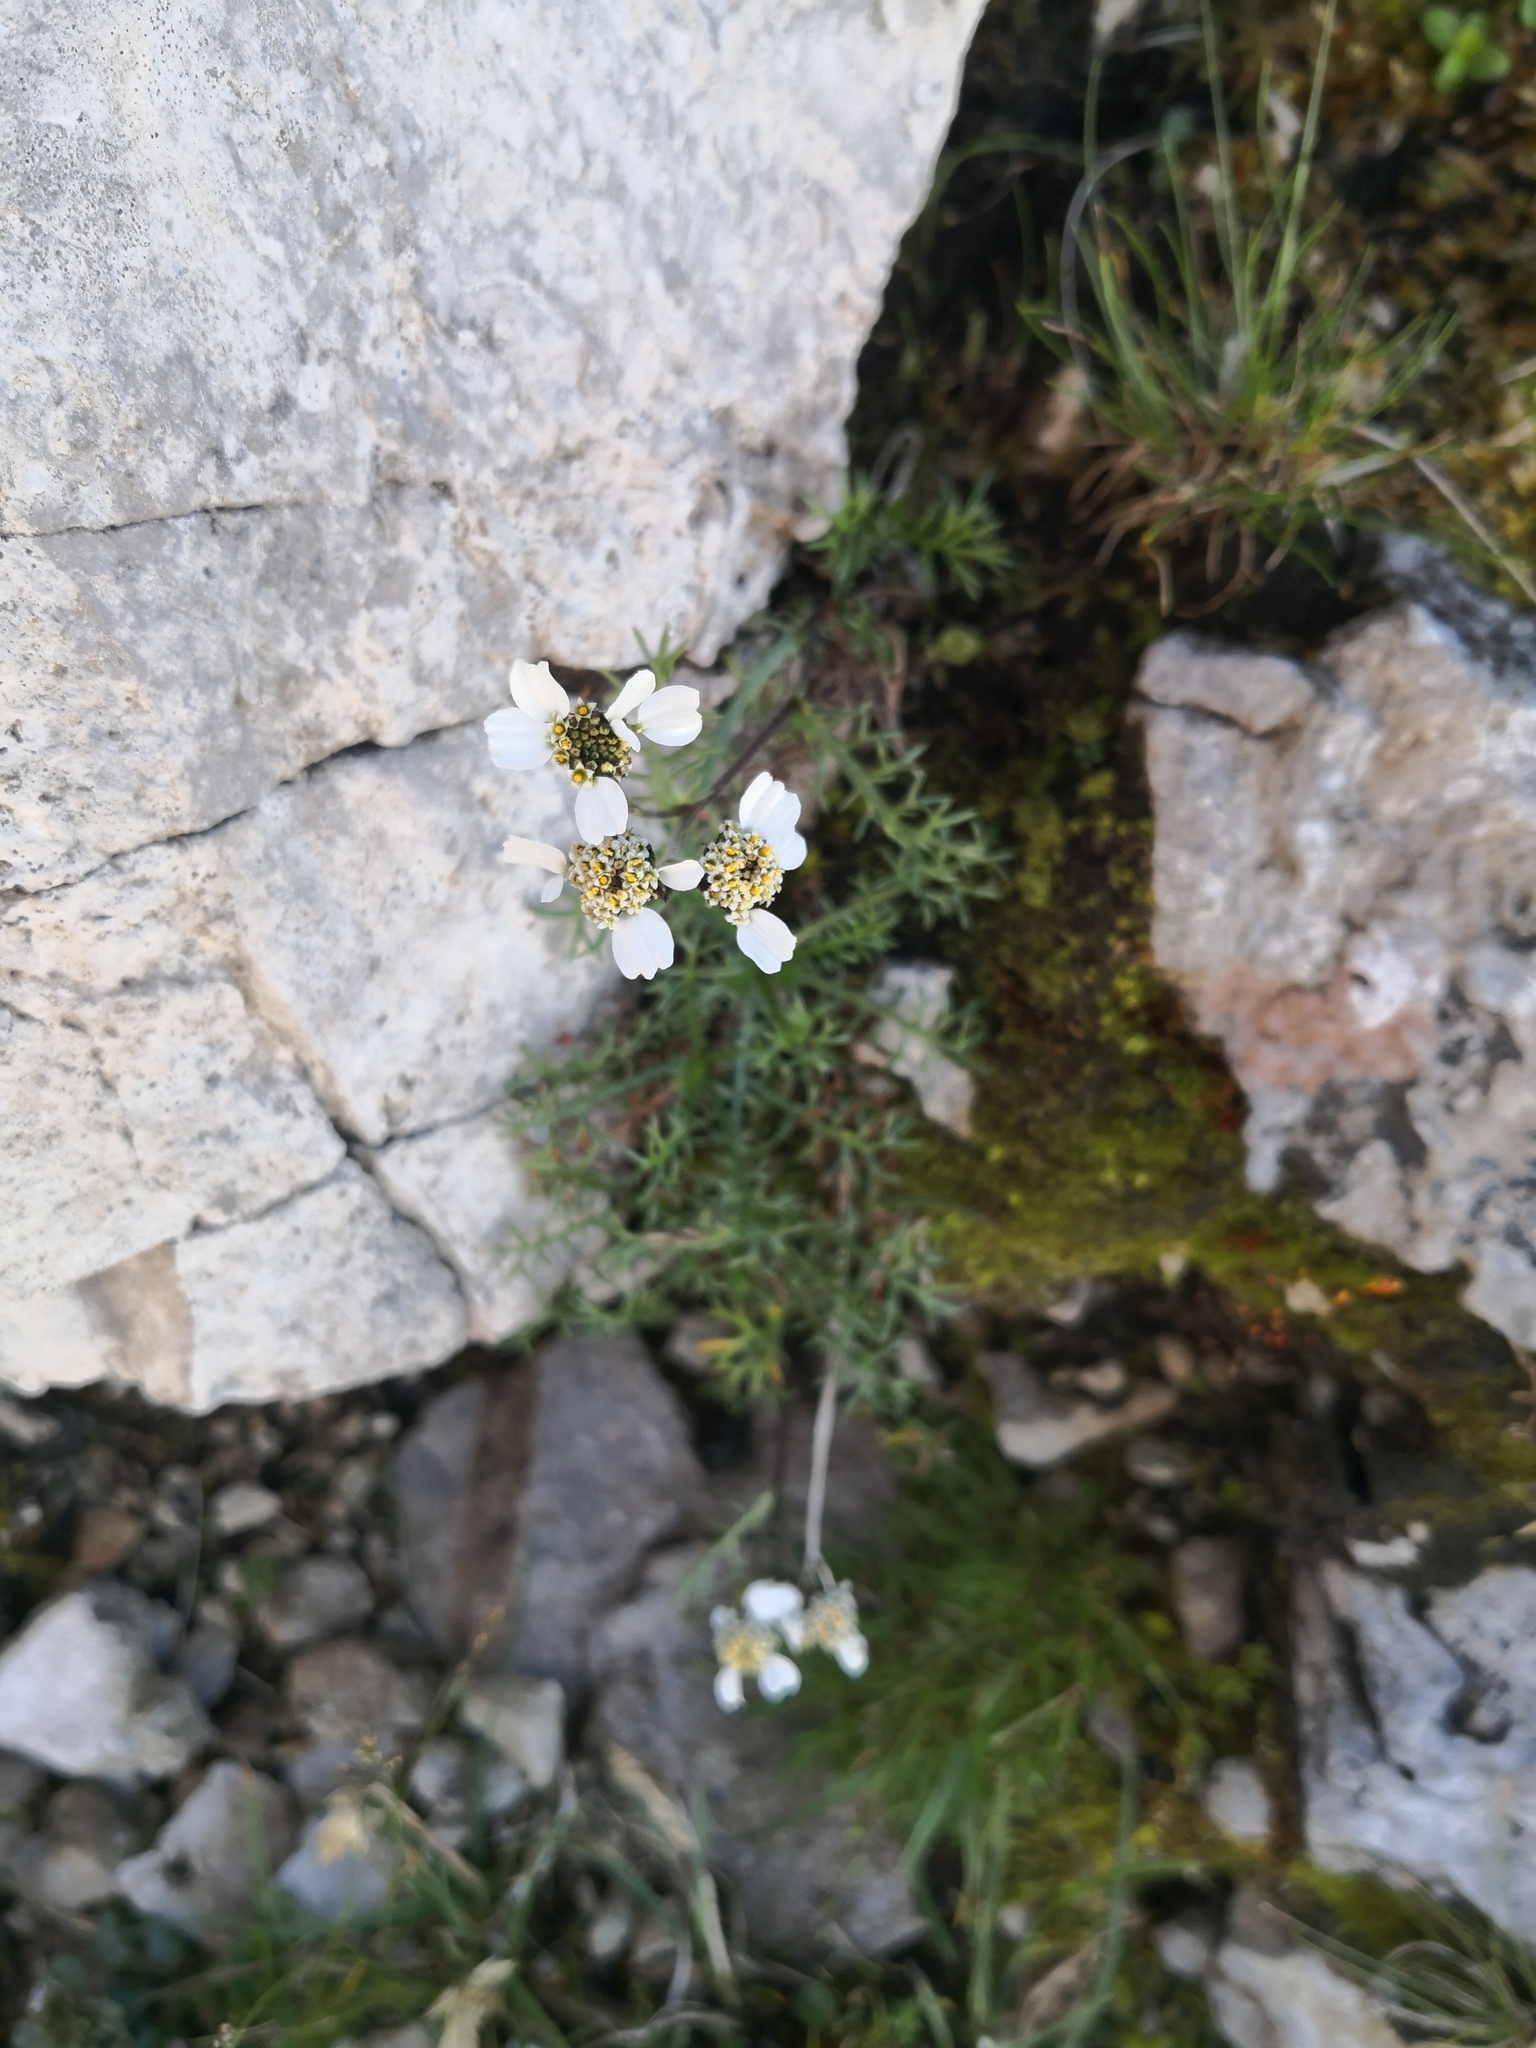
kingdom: Plantae
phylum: Tracheophyta
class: Magnoliopsida
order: Asterales
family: Asteraceae
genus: Achillea
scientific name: Achillea atrata
